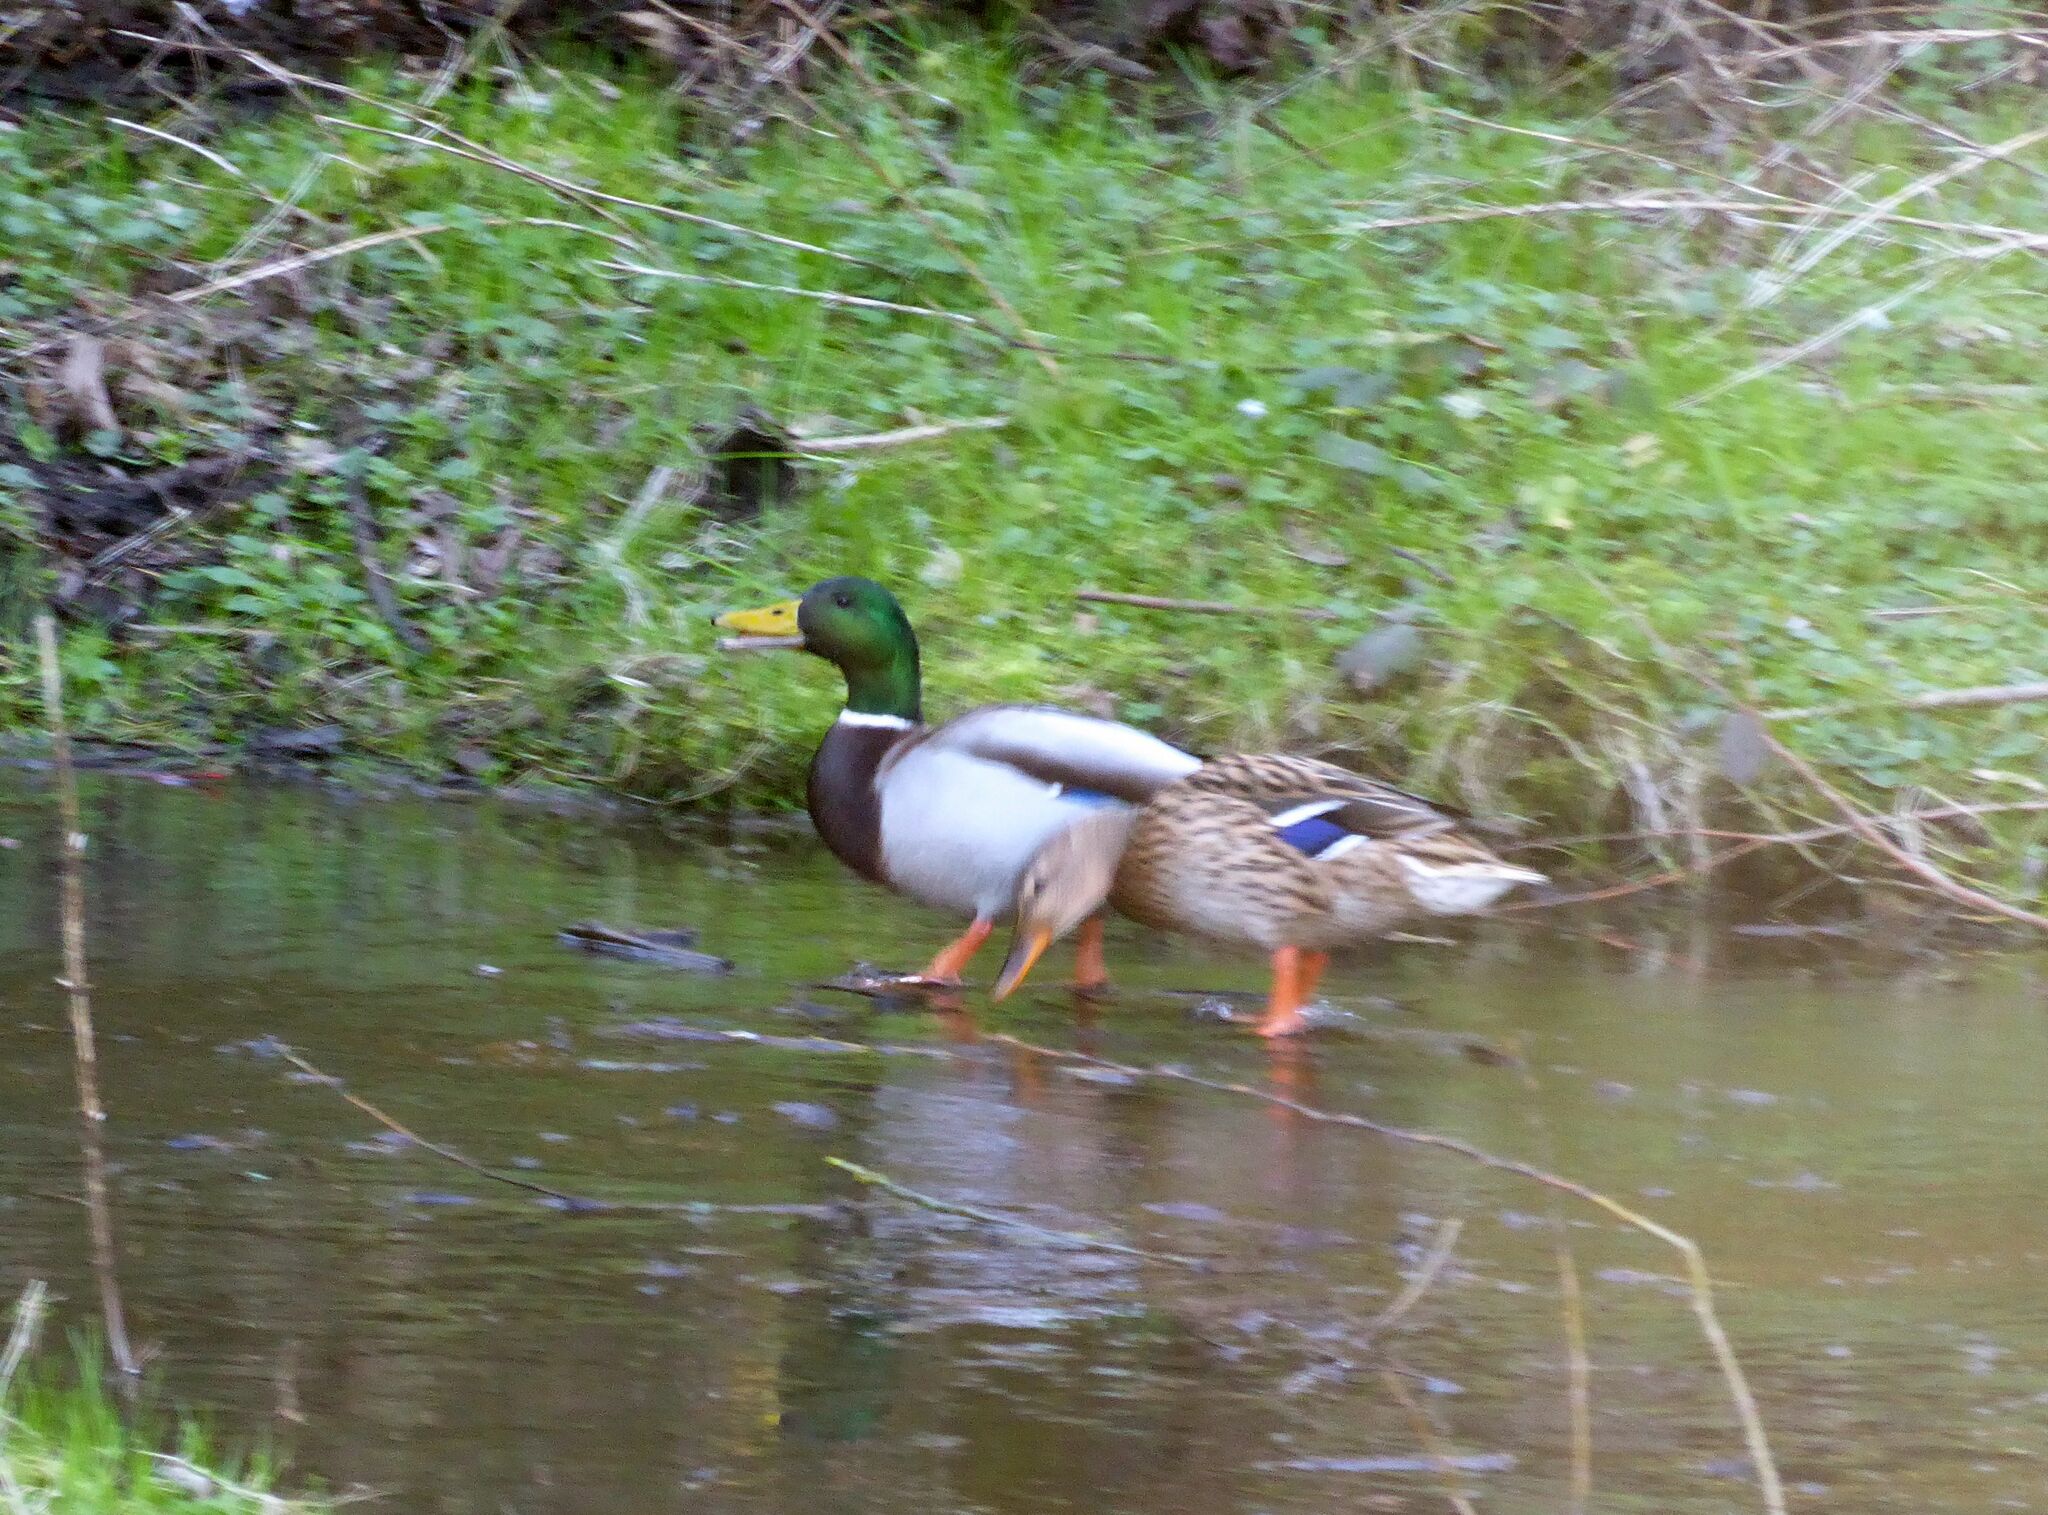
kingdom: Animalia
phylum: Chordata
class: Aves
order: Anseriformes
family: Anatidae
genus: Anas
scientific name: Anas platyrhynchos
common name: Mallard
